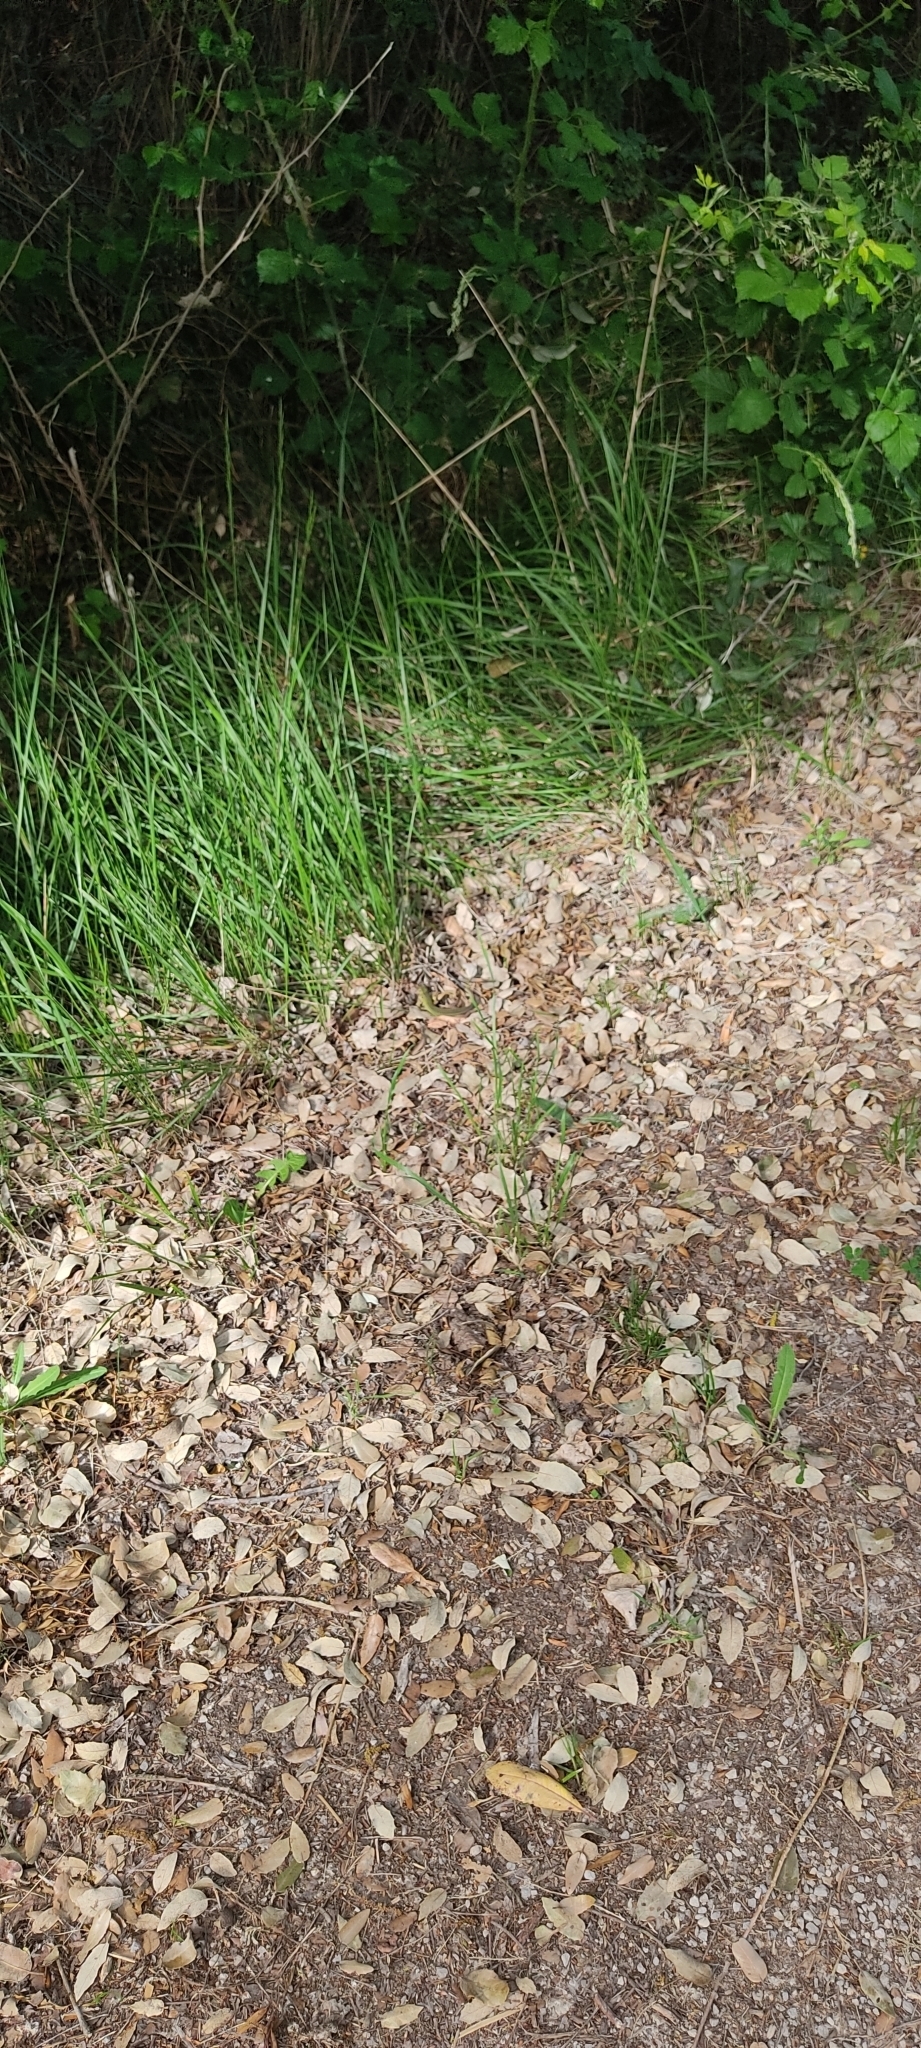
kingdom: Animalia
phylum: Chordata
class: Squamata
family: Lacertidae
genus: Lacerta
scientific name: Lacerta bilineata
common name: Western green lizard
